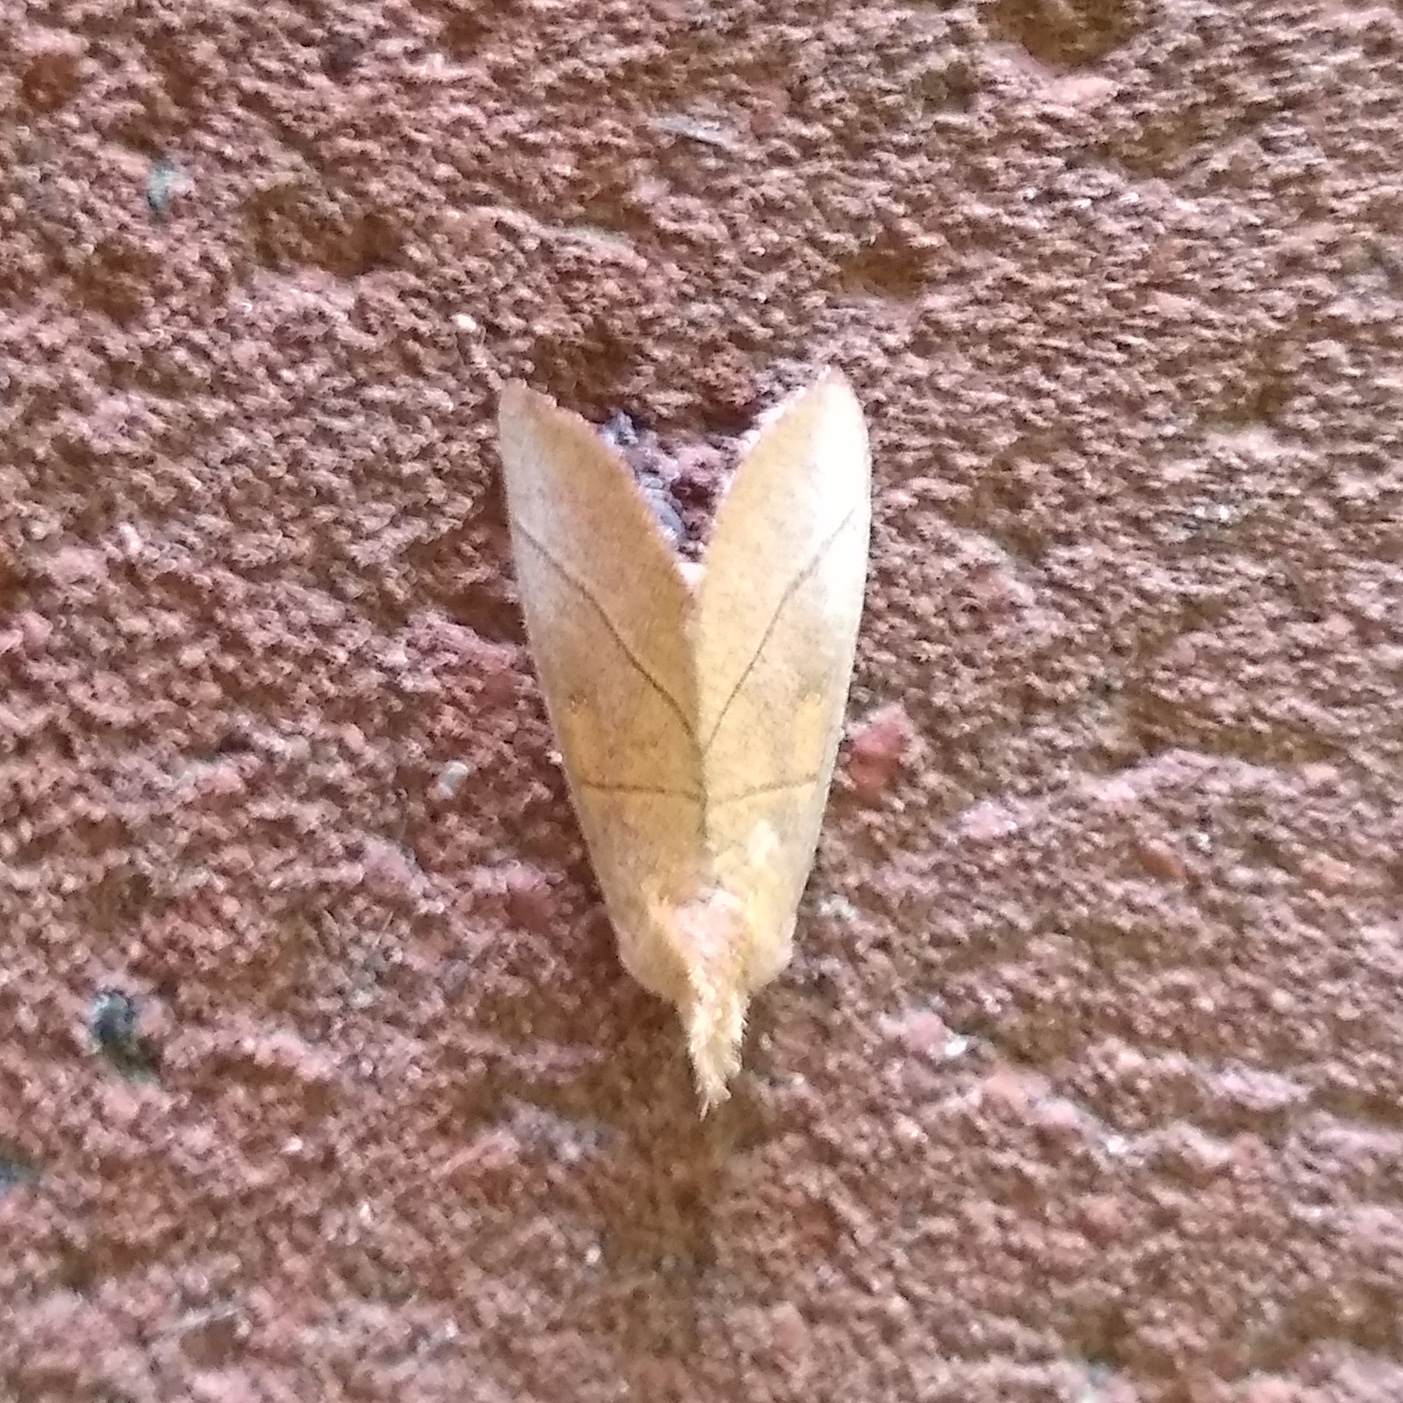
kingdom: Animalia
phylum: Arthropoda
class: Insecta
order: Lepidoptera
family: Notodontidae
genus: Nadata
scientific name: Nadata gibbosa
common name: White-dotted prominent
